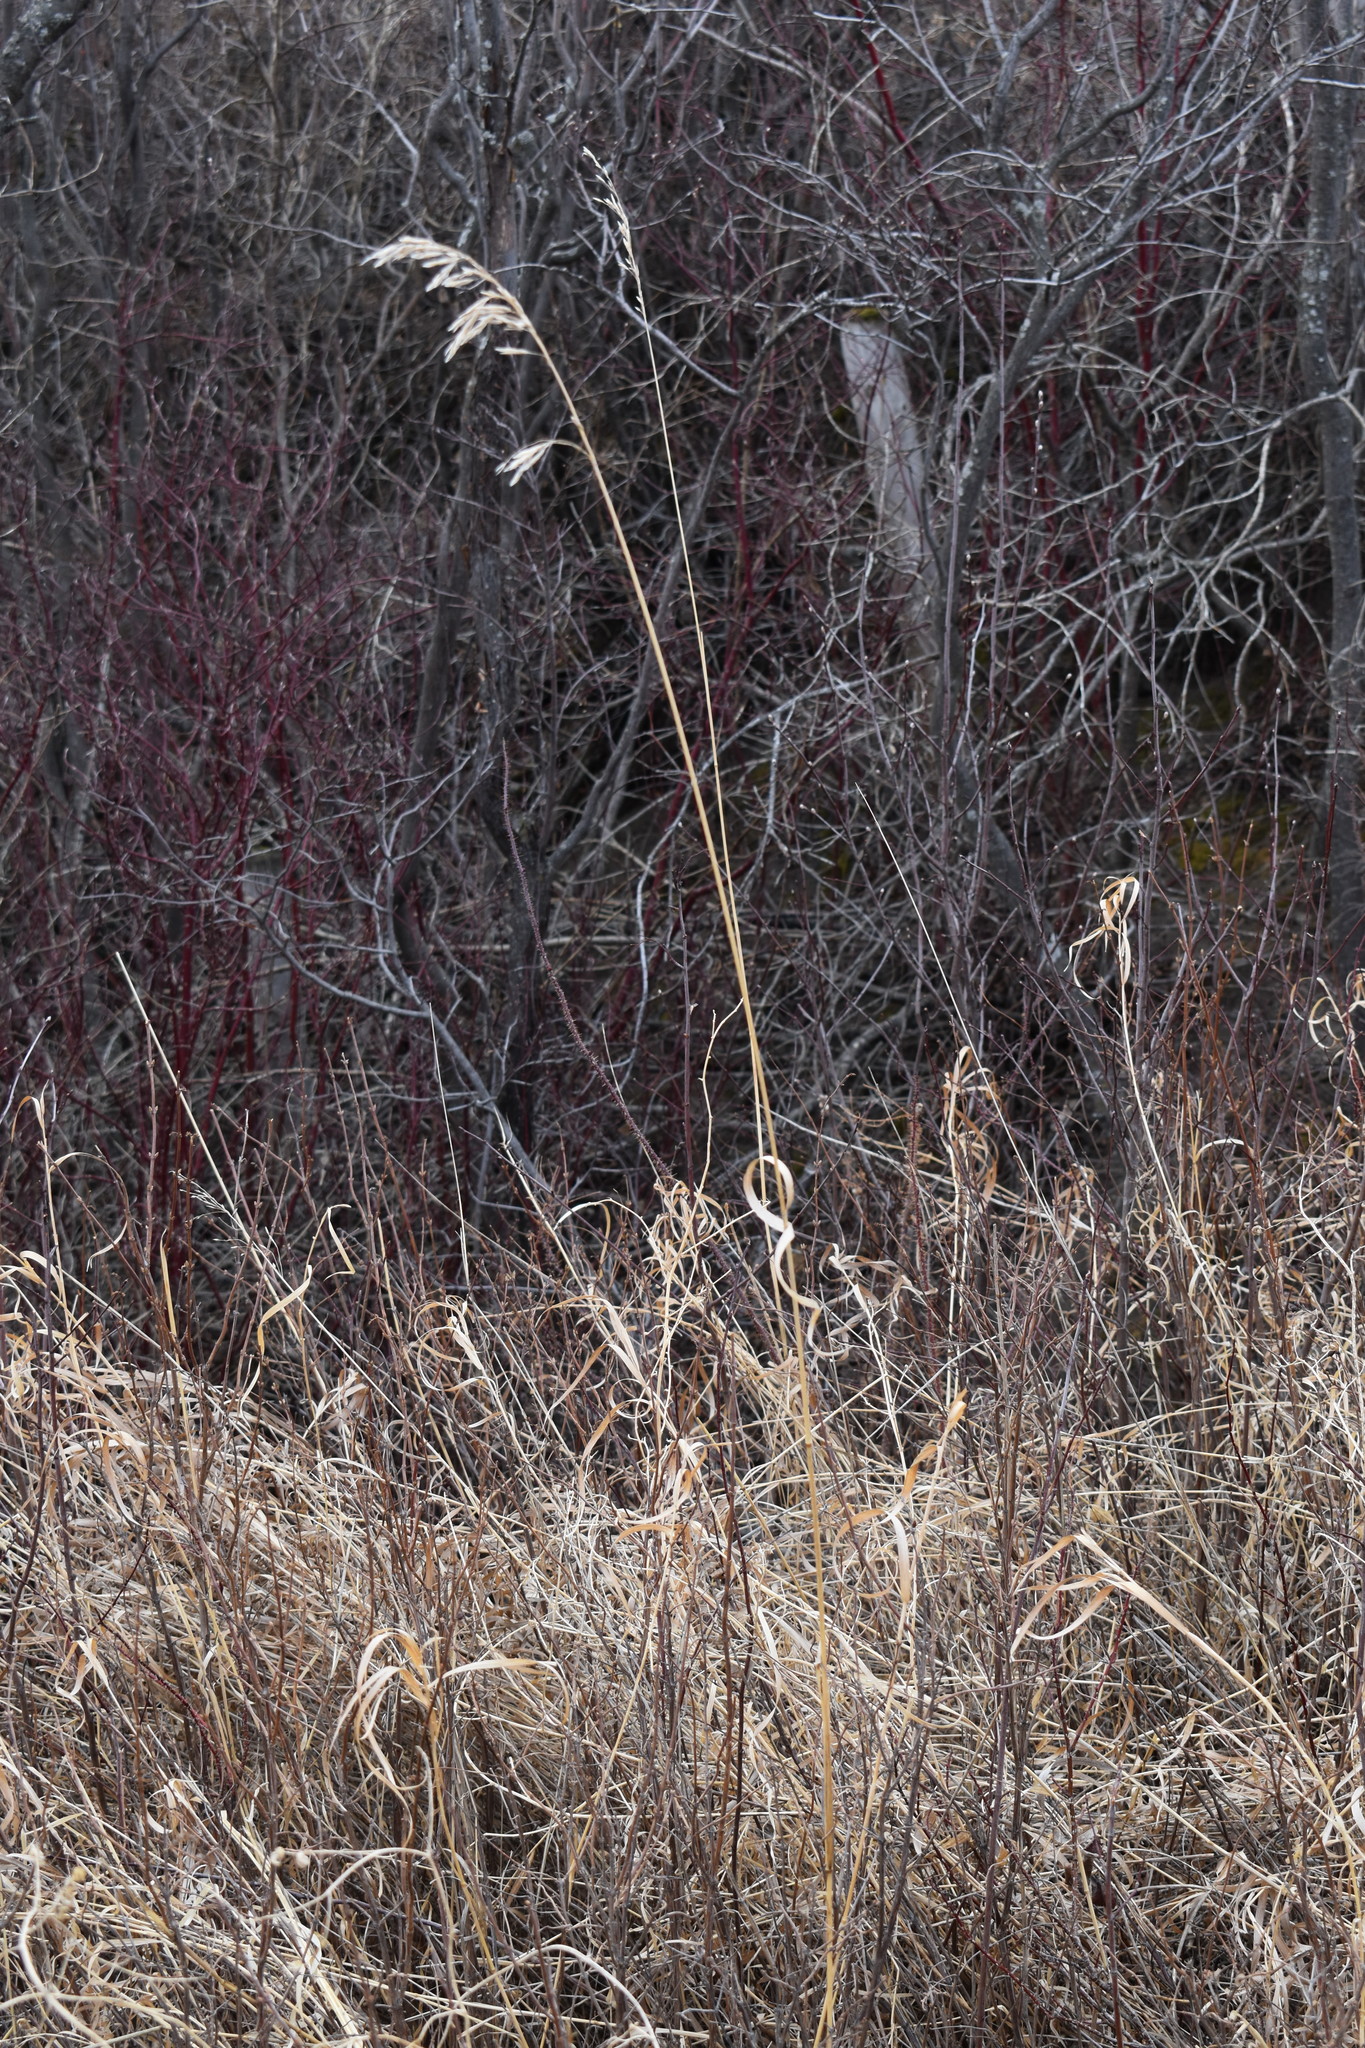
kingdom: Plantae
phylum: Tracheophyta
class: Liliopsida
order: Poales
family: Poaceae
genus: Bromus
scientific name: Bromus inermis
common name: Smooth brome
